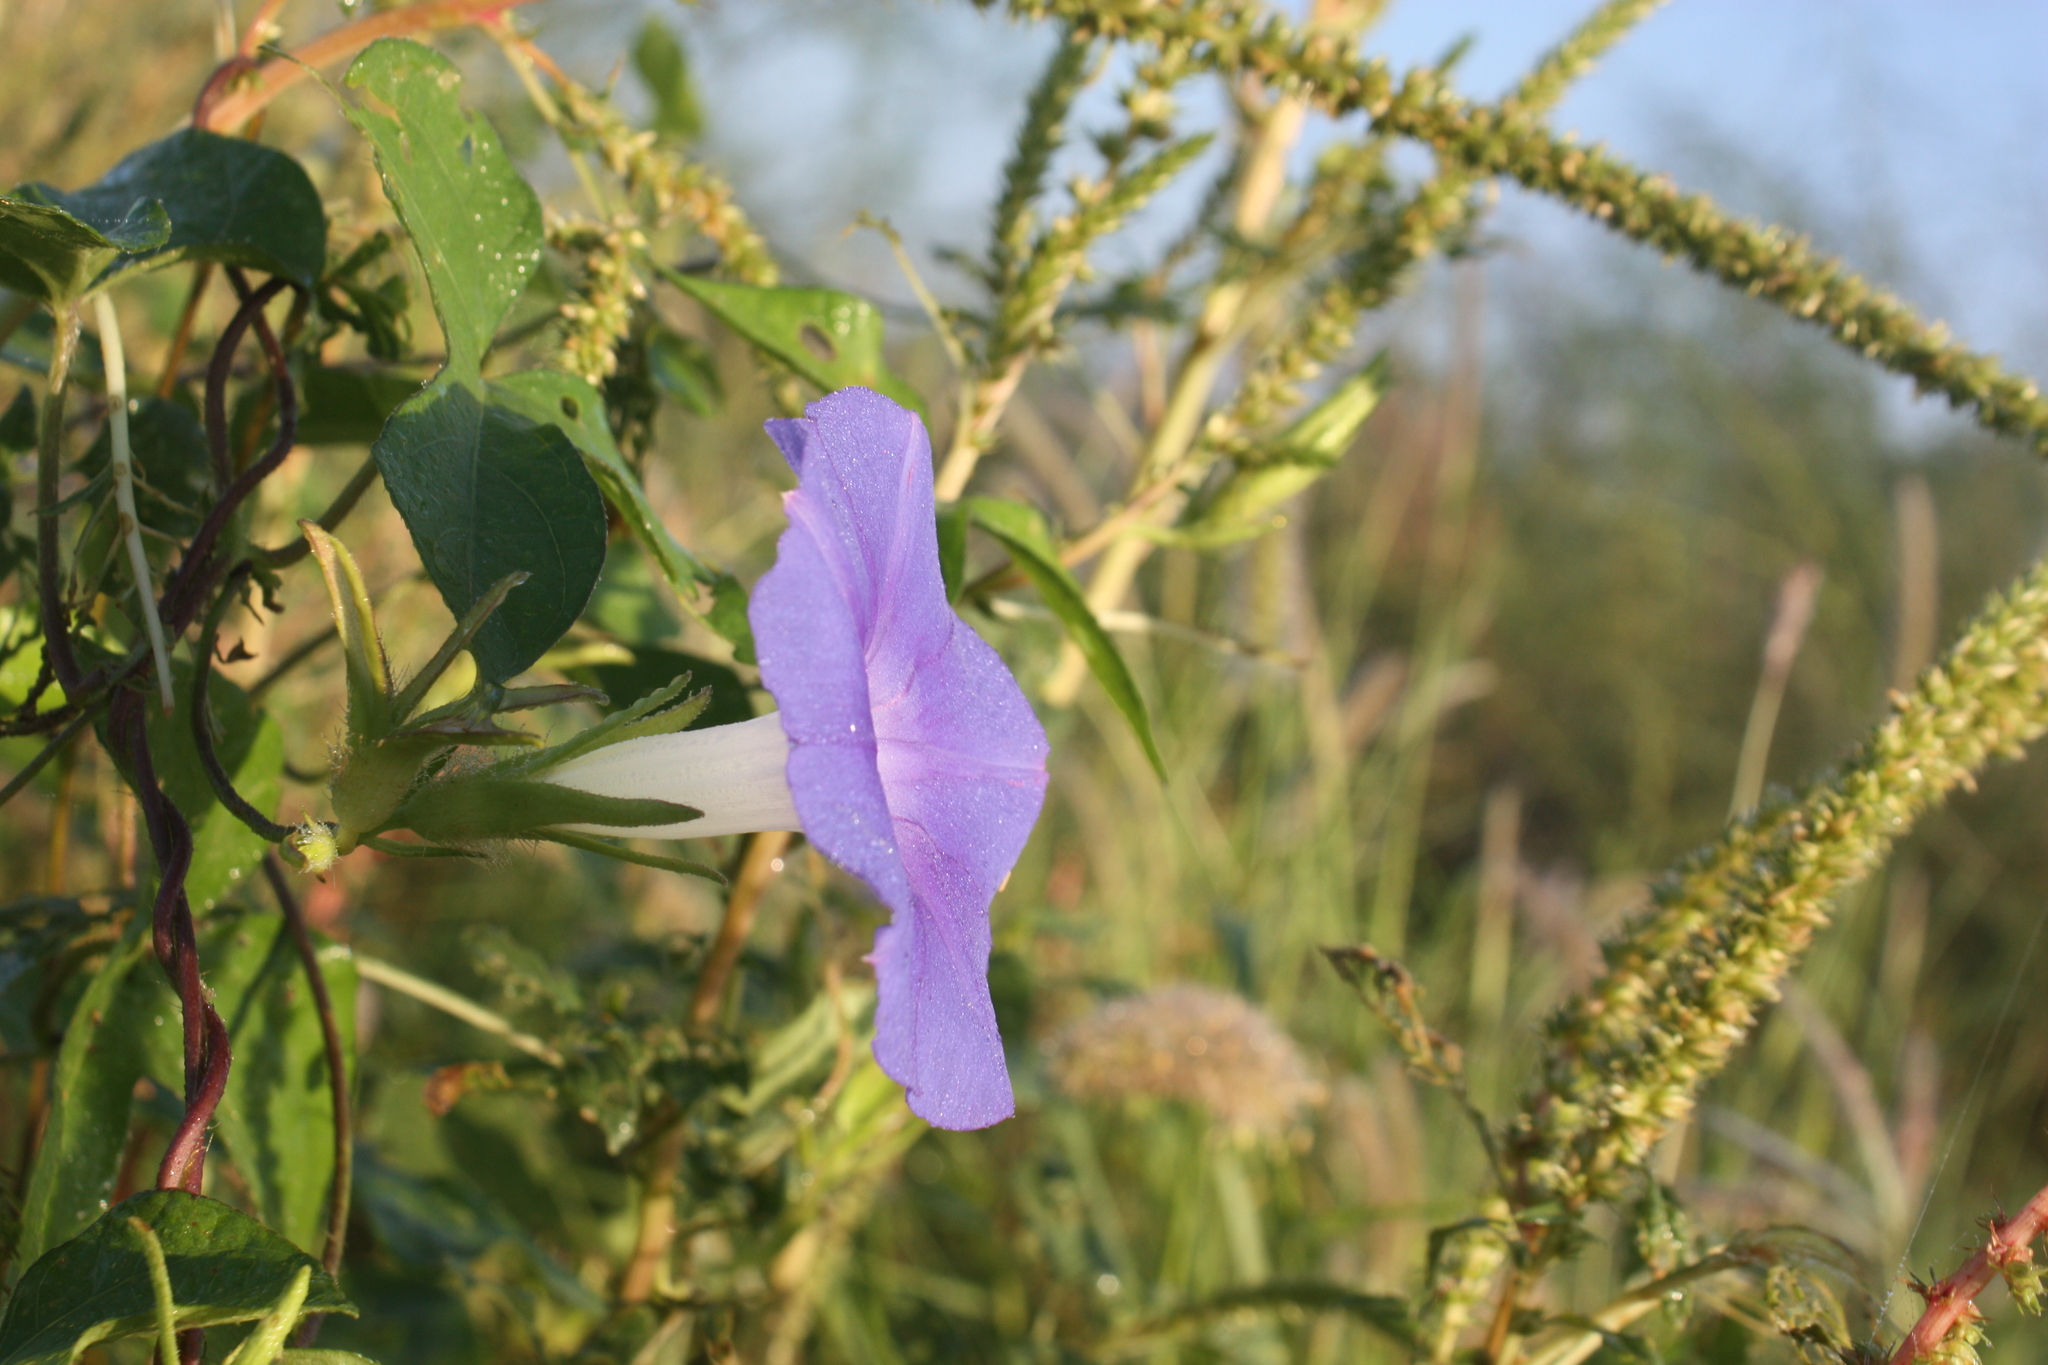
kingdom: Plantae
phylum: Tracheophyta
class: Magnoliopsida
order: Solanales
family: Convolvulaceae
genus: Ipomoea
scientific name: Ipomoea nil
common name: Japanese morning-glory
